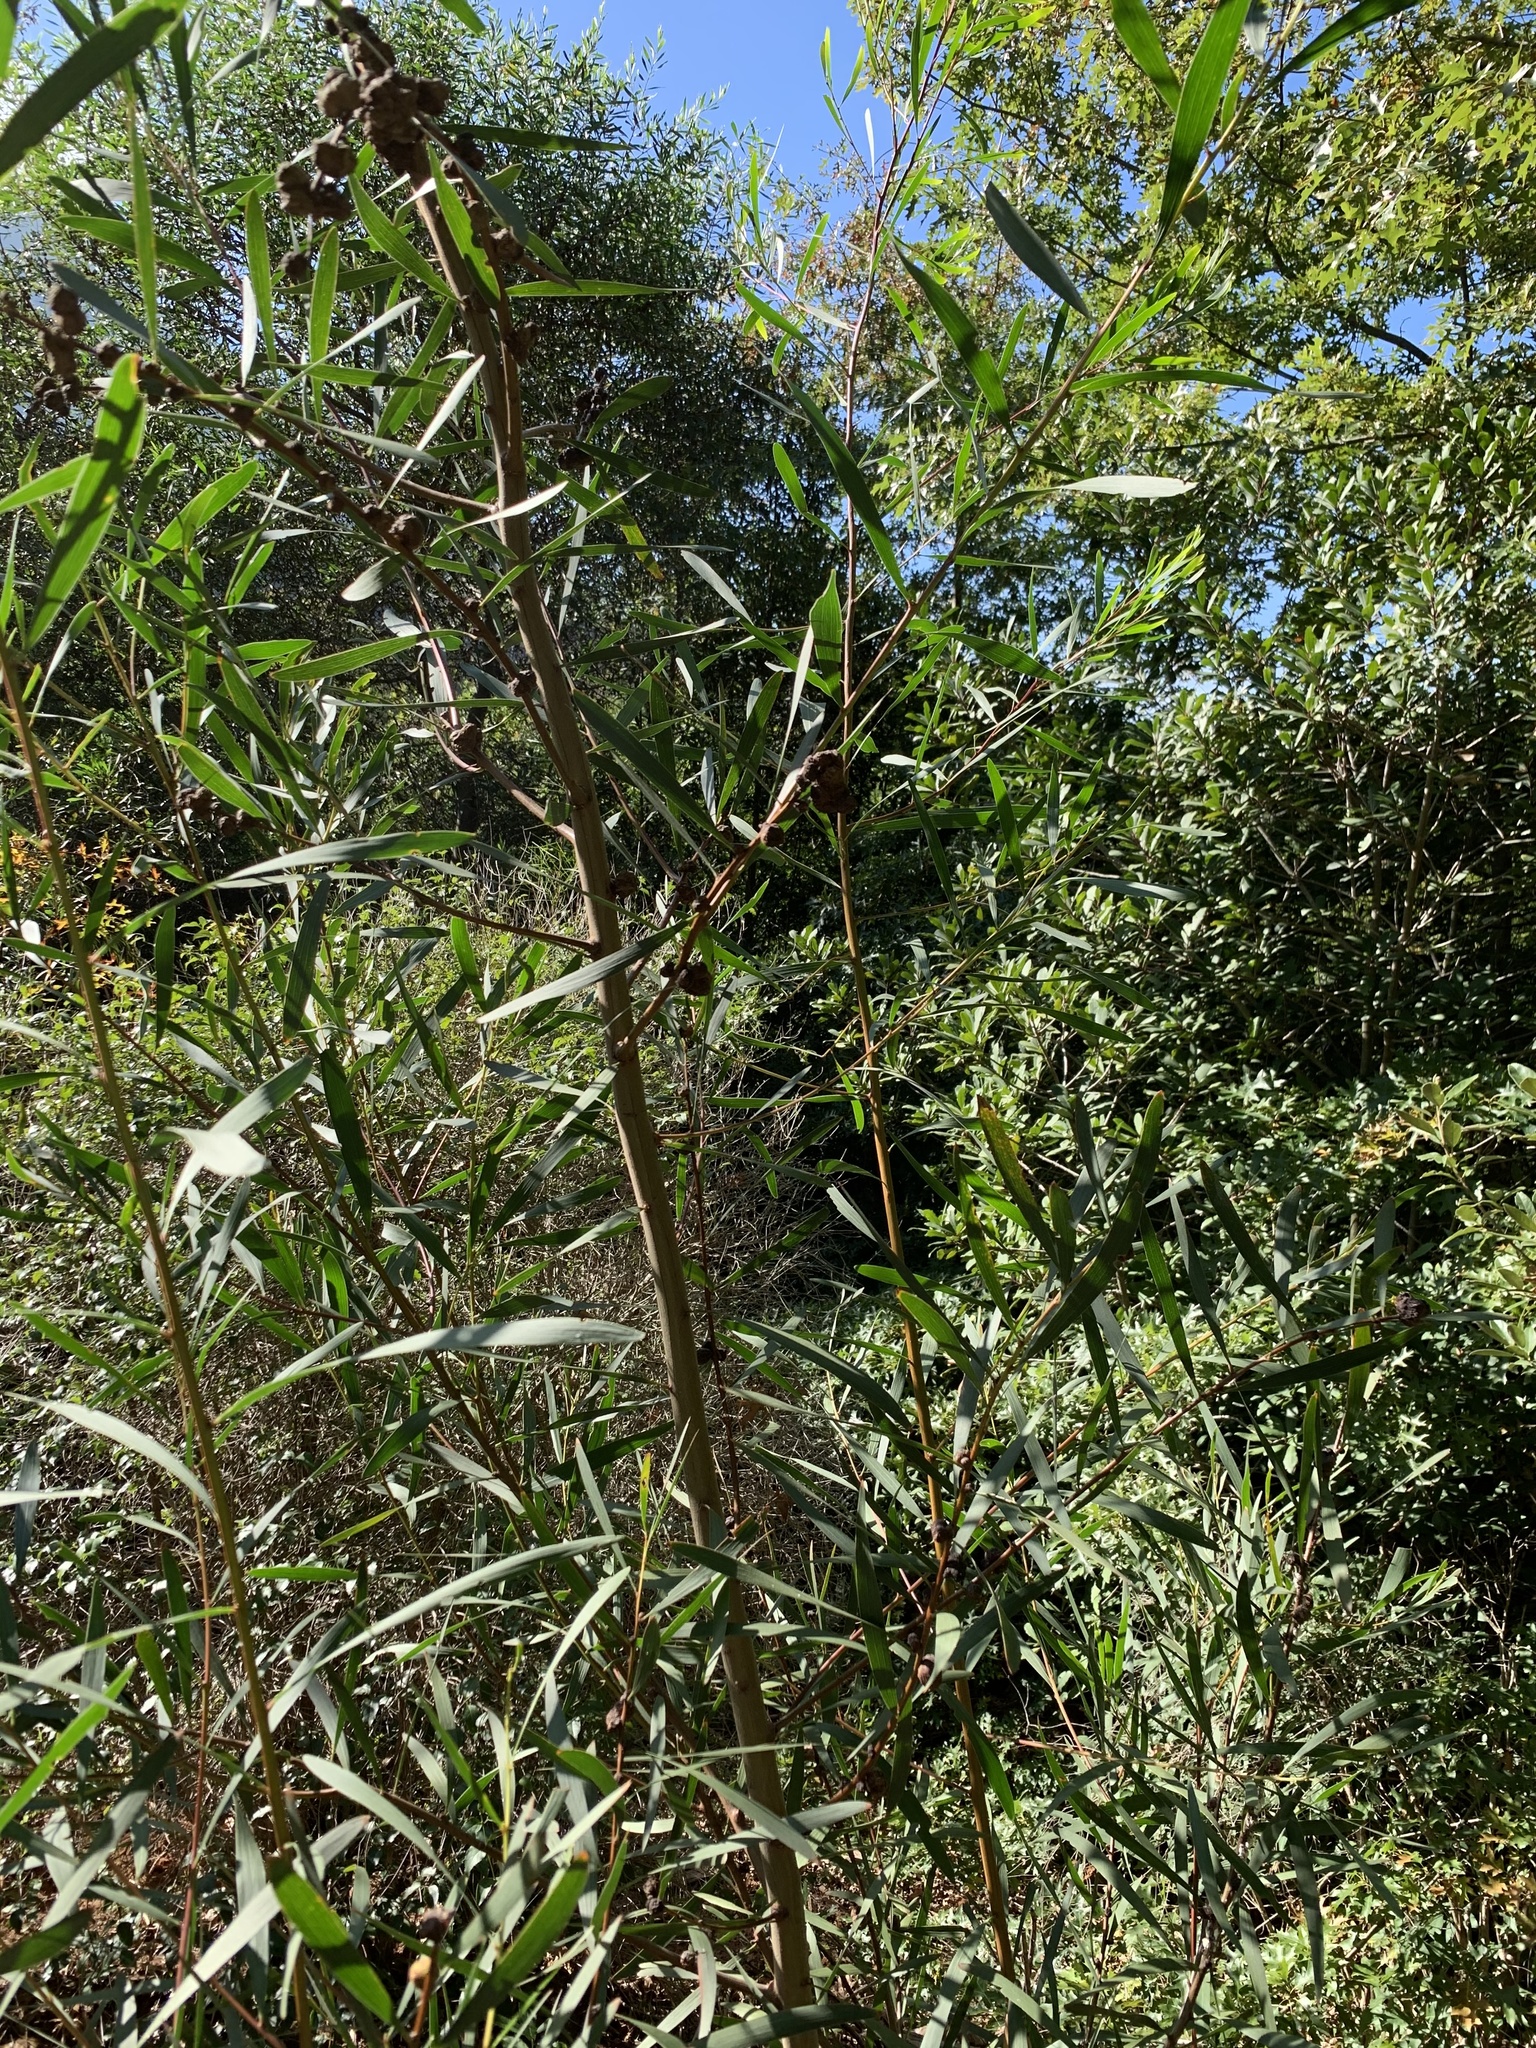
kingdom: Plantae
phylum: Tracheophyta
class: Magnoliopsida
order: Fabales
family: Fabaceae
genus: Acacia
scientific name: Acacia longifolia
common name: Sydney golden wattle
